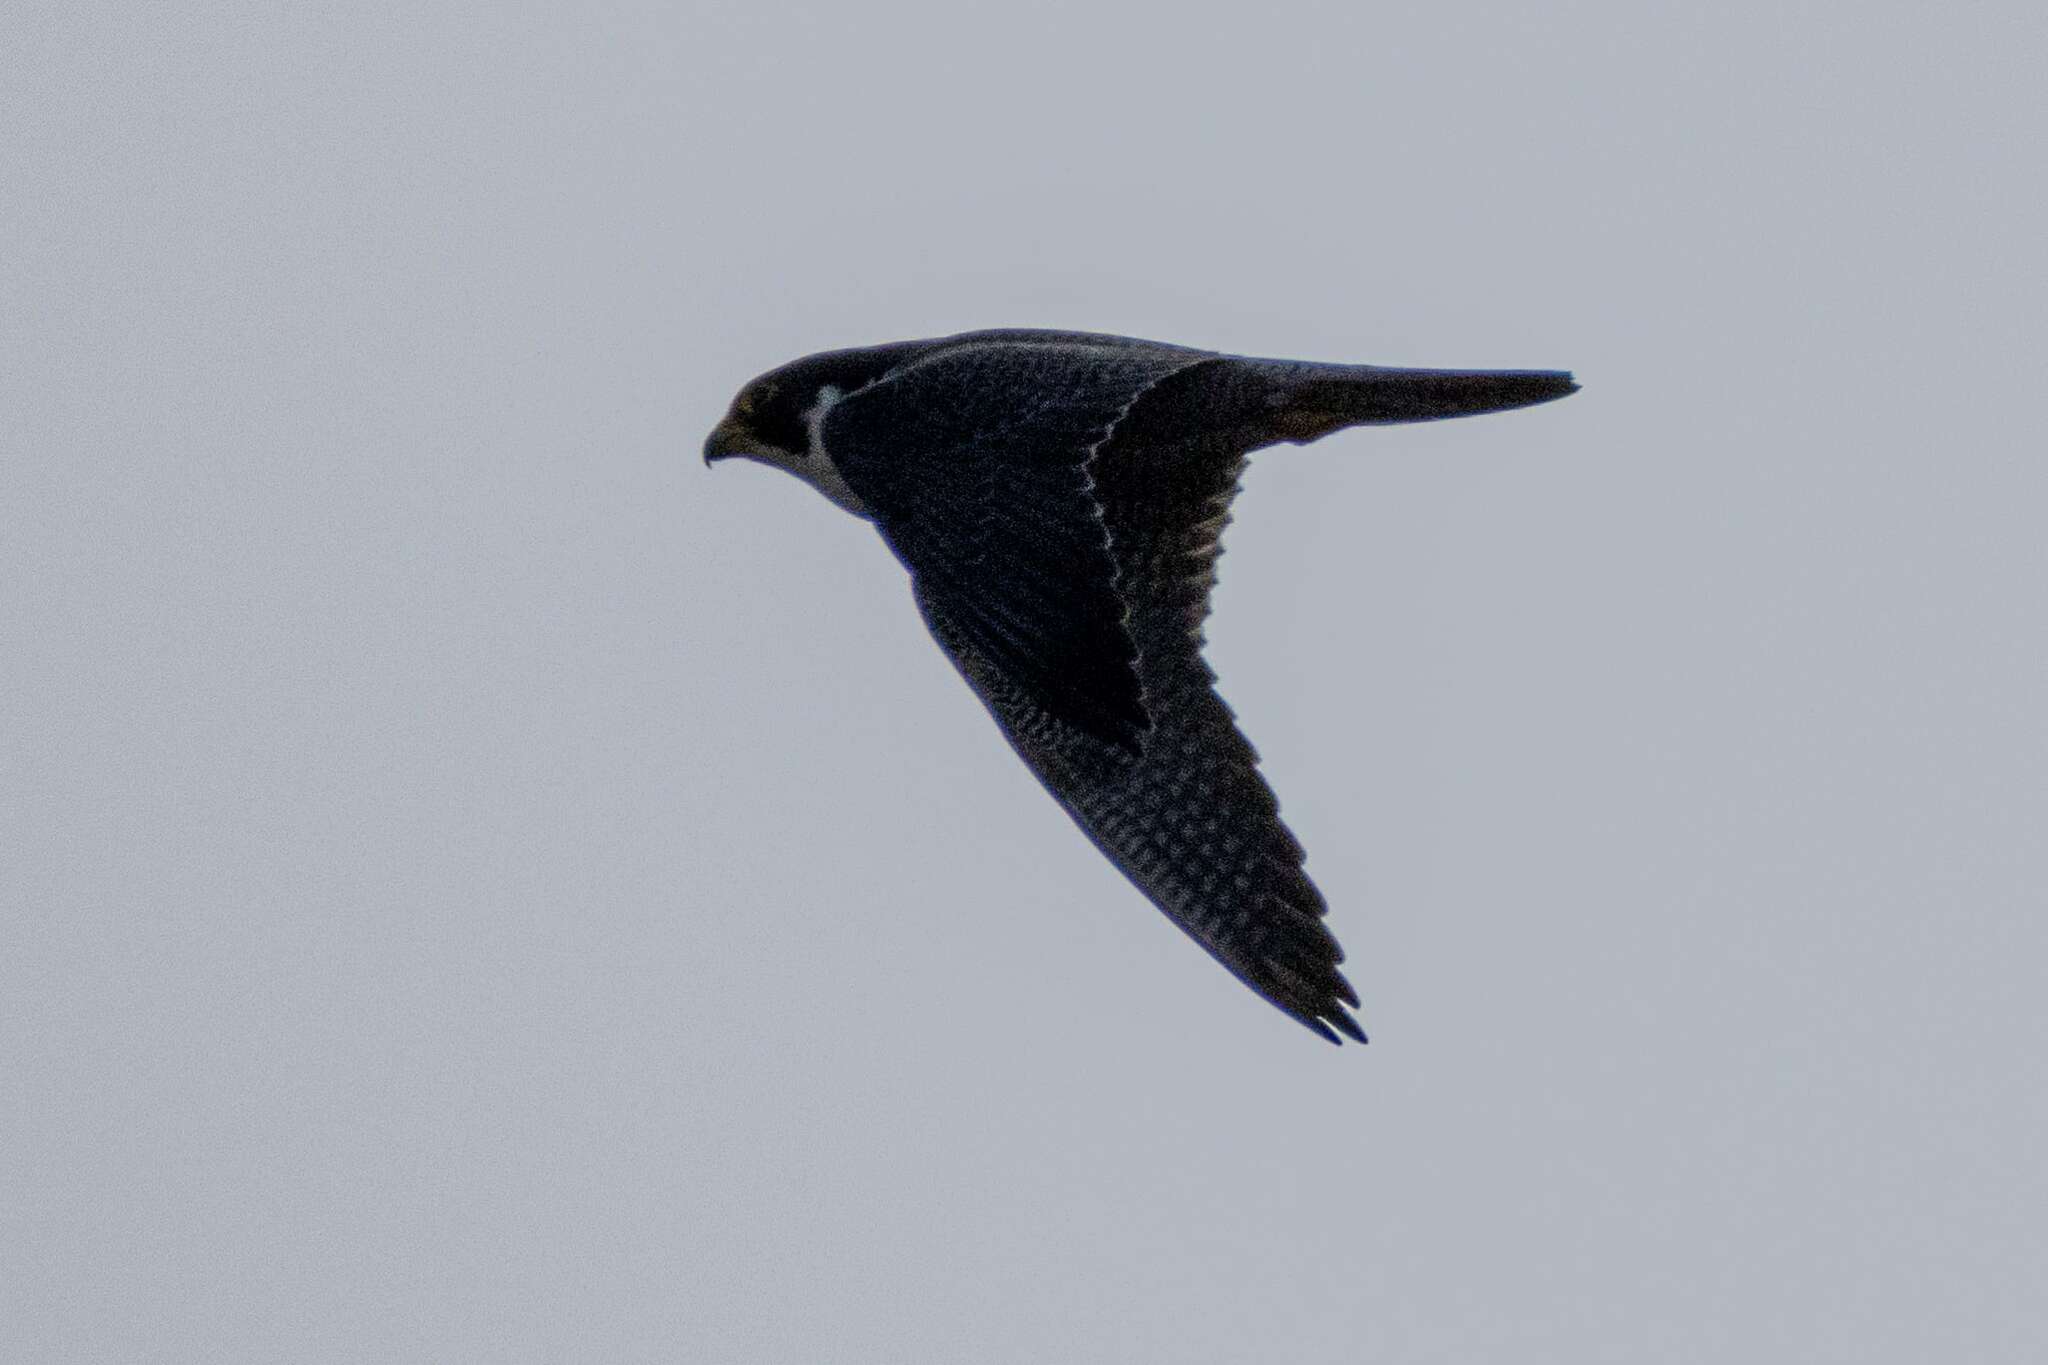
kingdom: Animalia
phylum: Chordata
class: Aves
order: Falconiformes
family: Falconidae
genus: Falco
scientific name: Falco peregrinus
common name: Peregrine falcon
